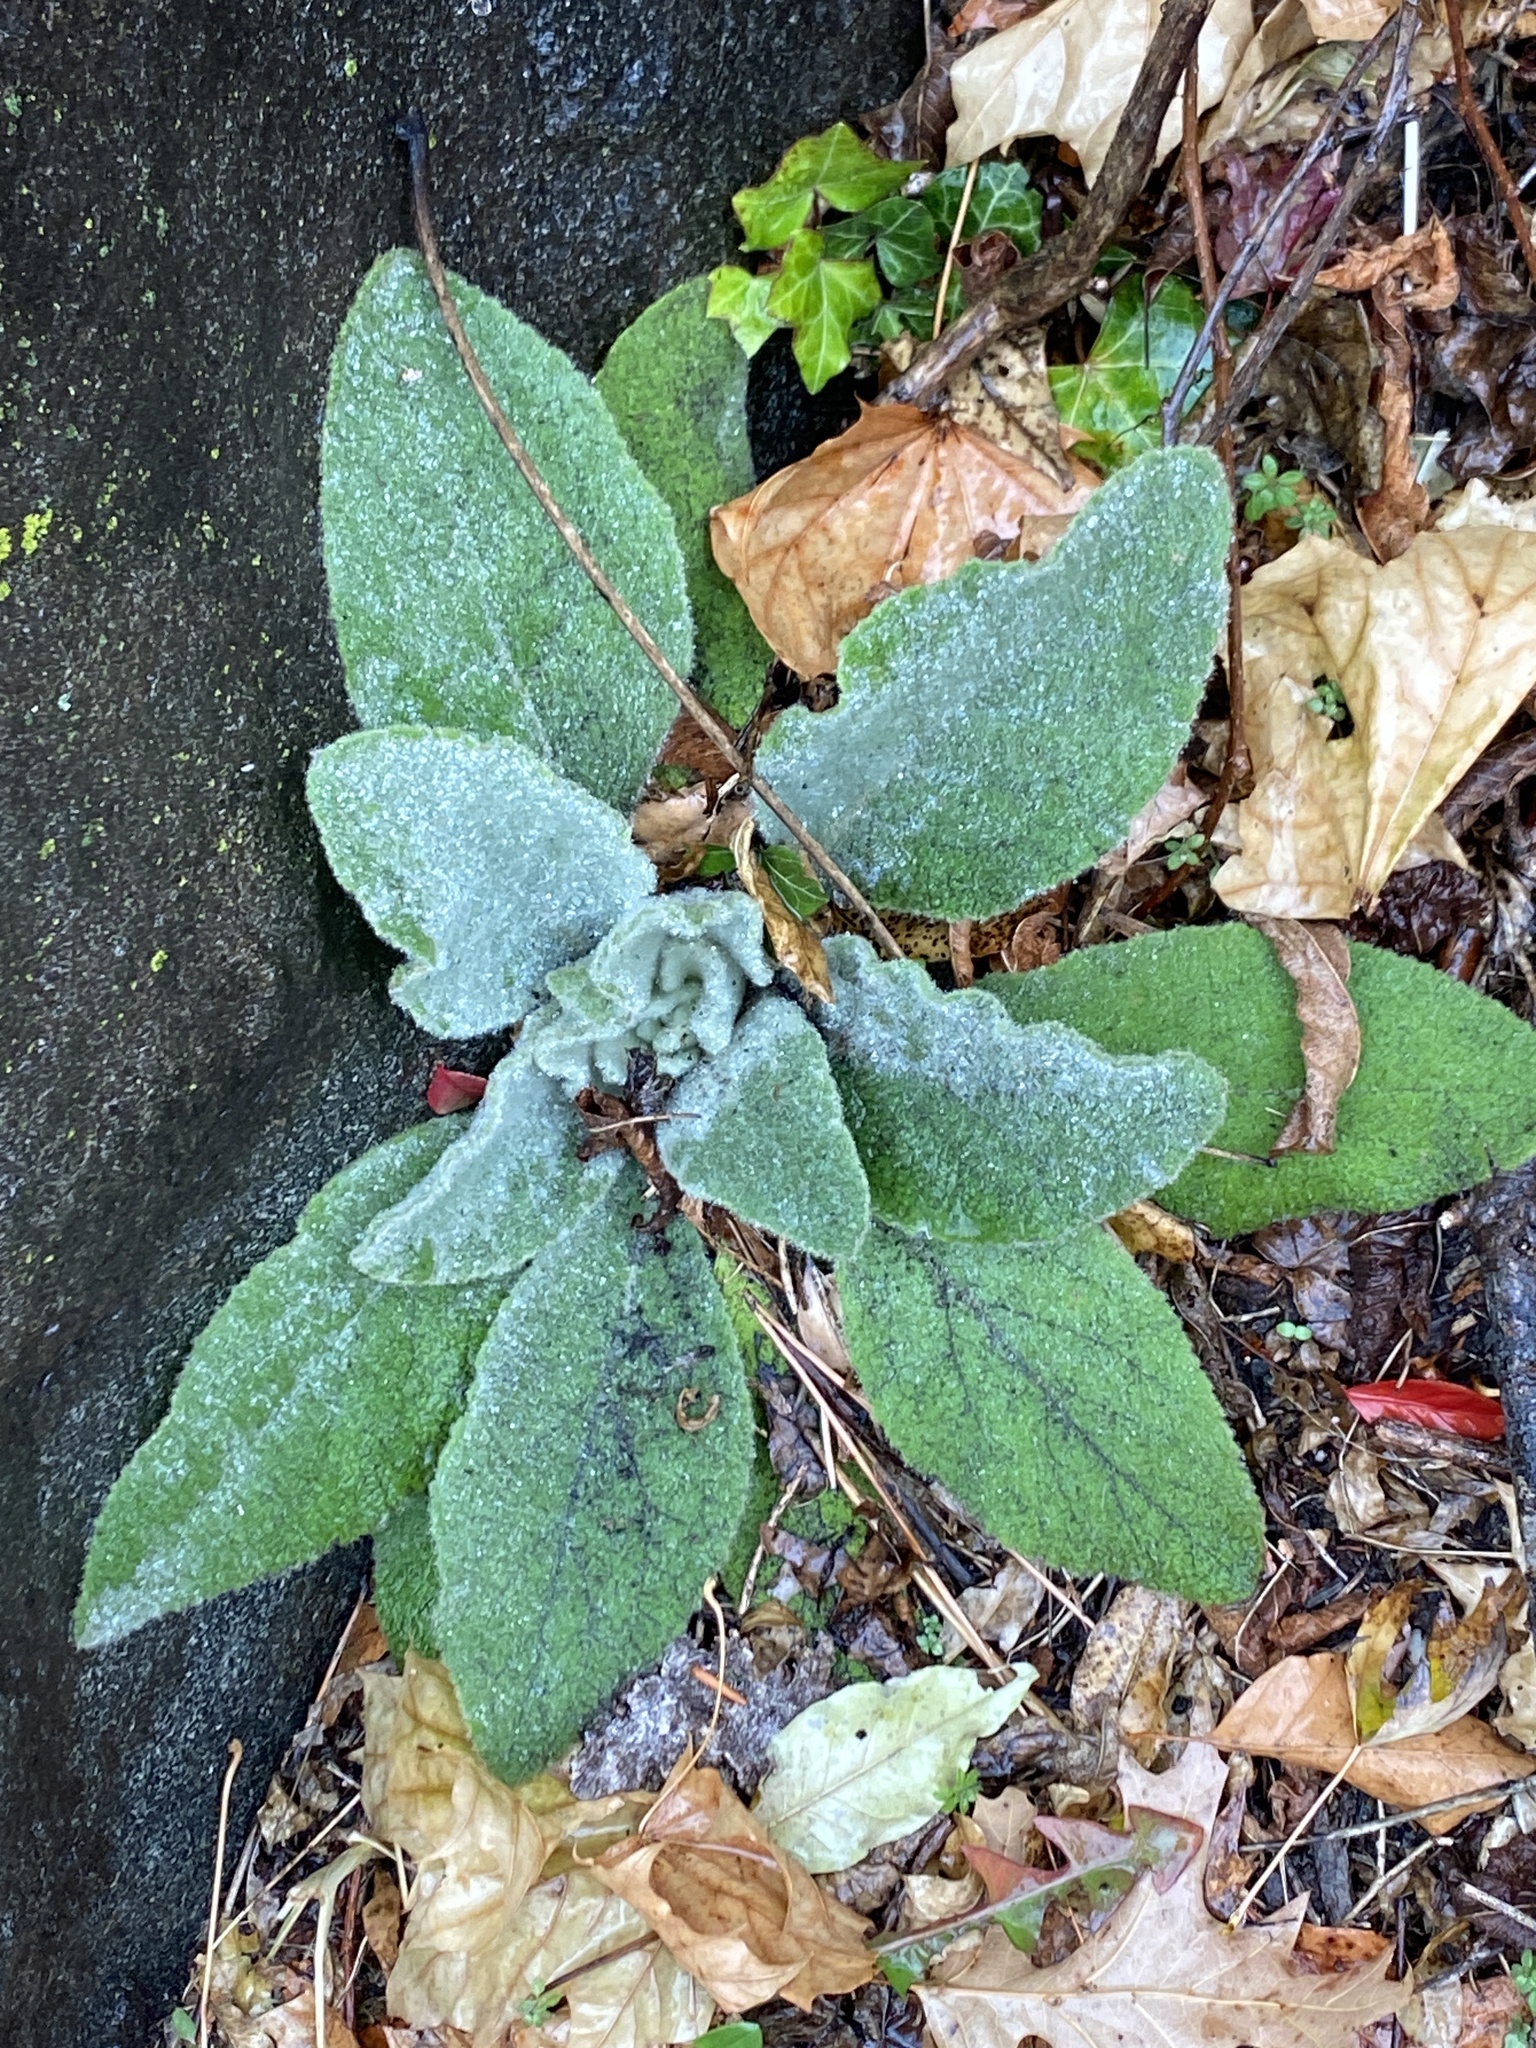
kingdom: Plantae
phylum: Tracheophyta
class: Magnoliopsida
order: Lamiales
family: Scrophulariaceae
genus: Verbascum
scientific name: Verbascum thapsus
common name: Common mullein
